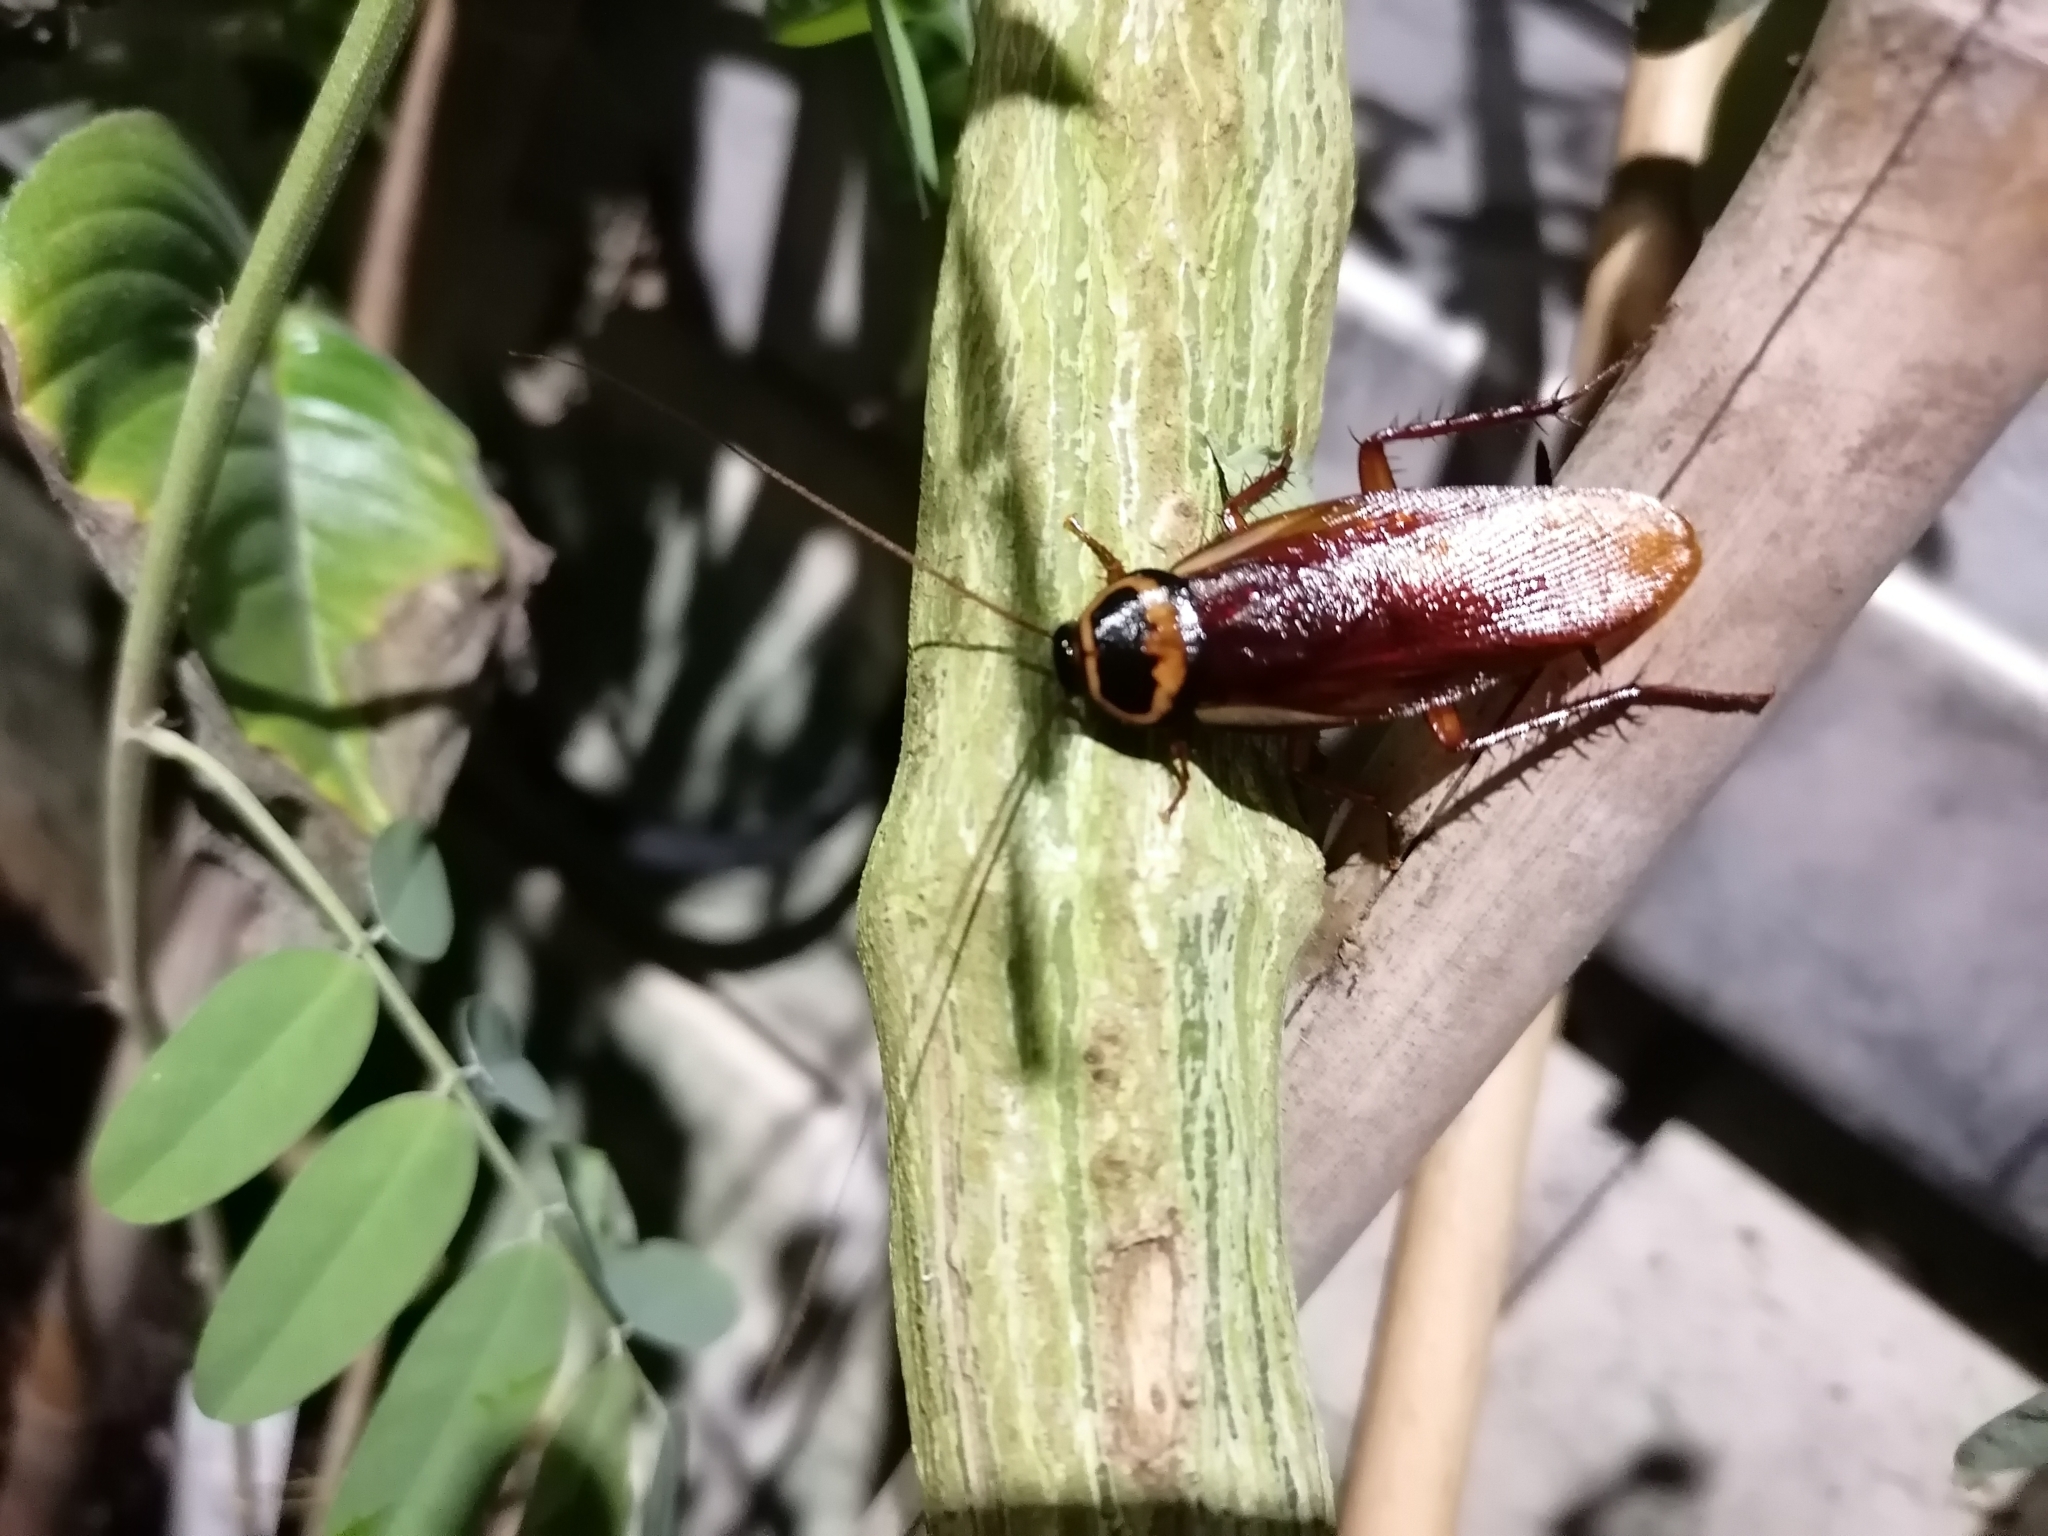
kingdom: Animalia
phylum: Arthropoda
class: Insecta
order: Blattodea
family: Blattidae
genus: Periplaneta
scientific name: Periplaneta australasiae
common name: Australian cockroach
